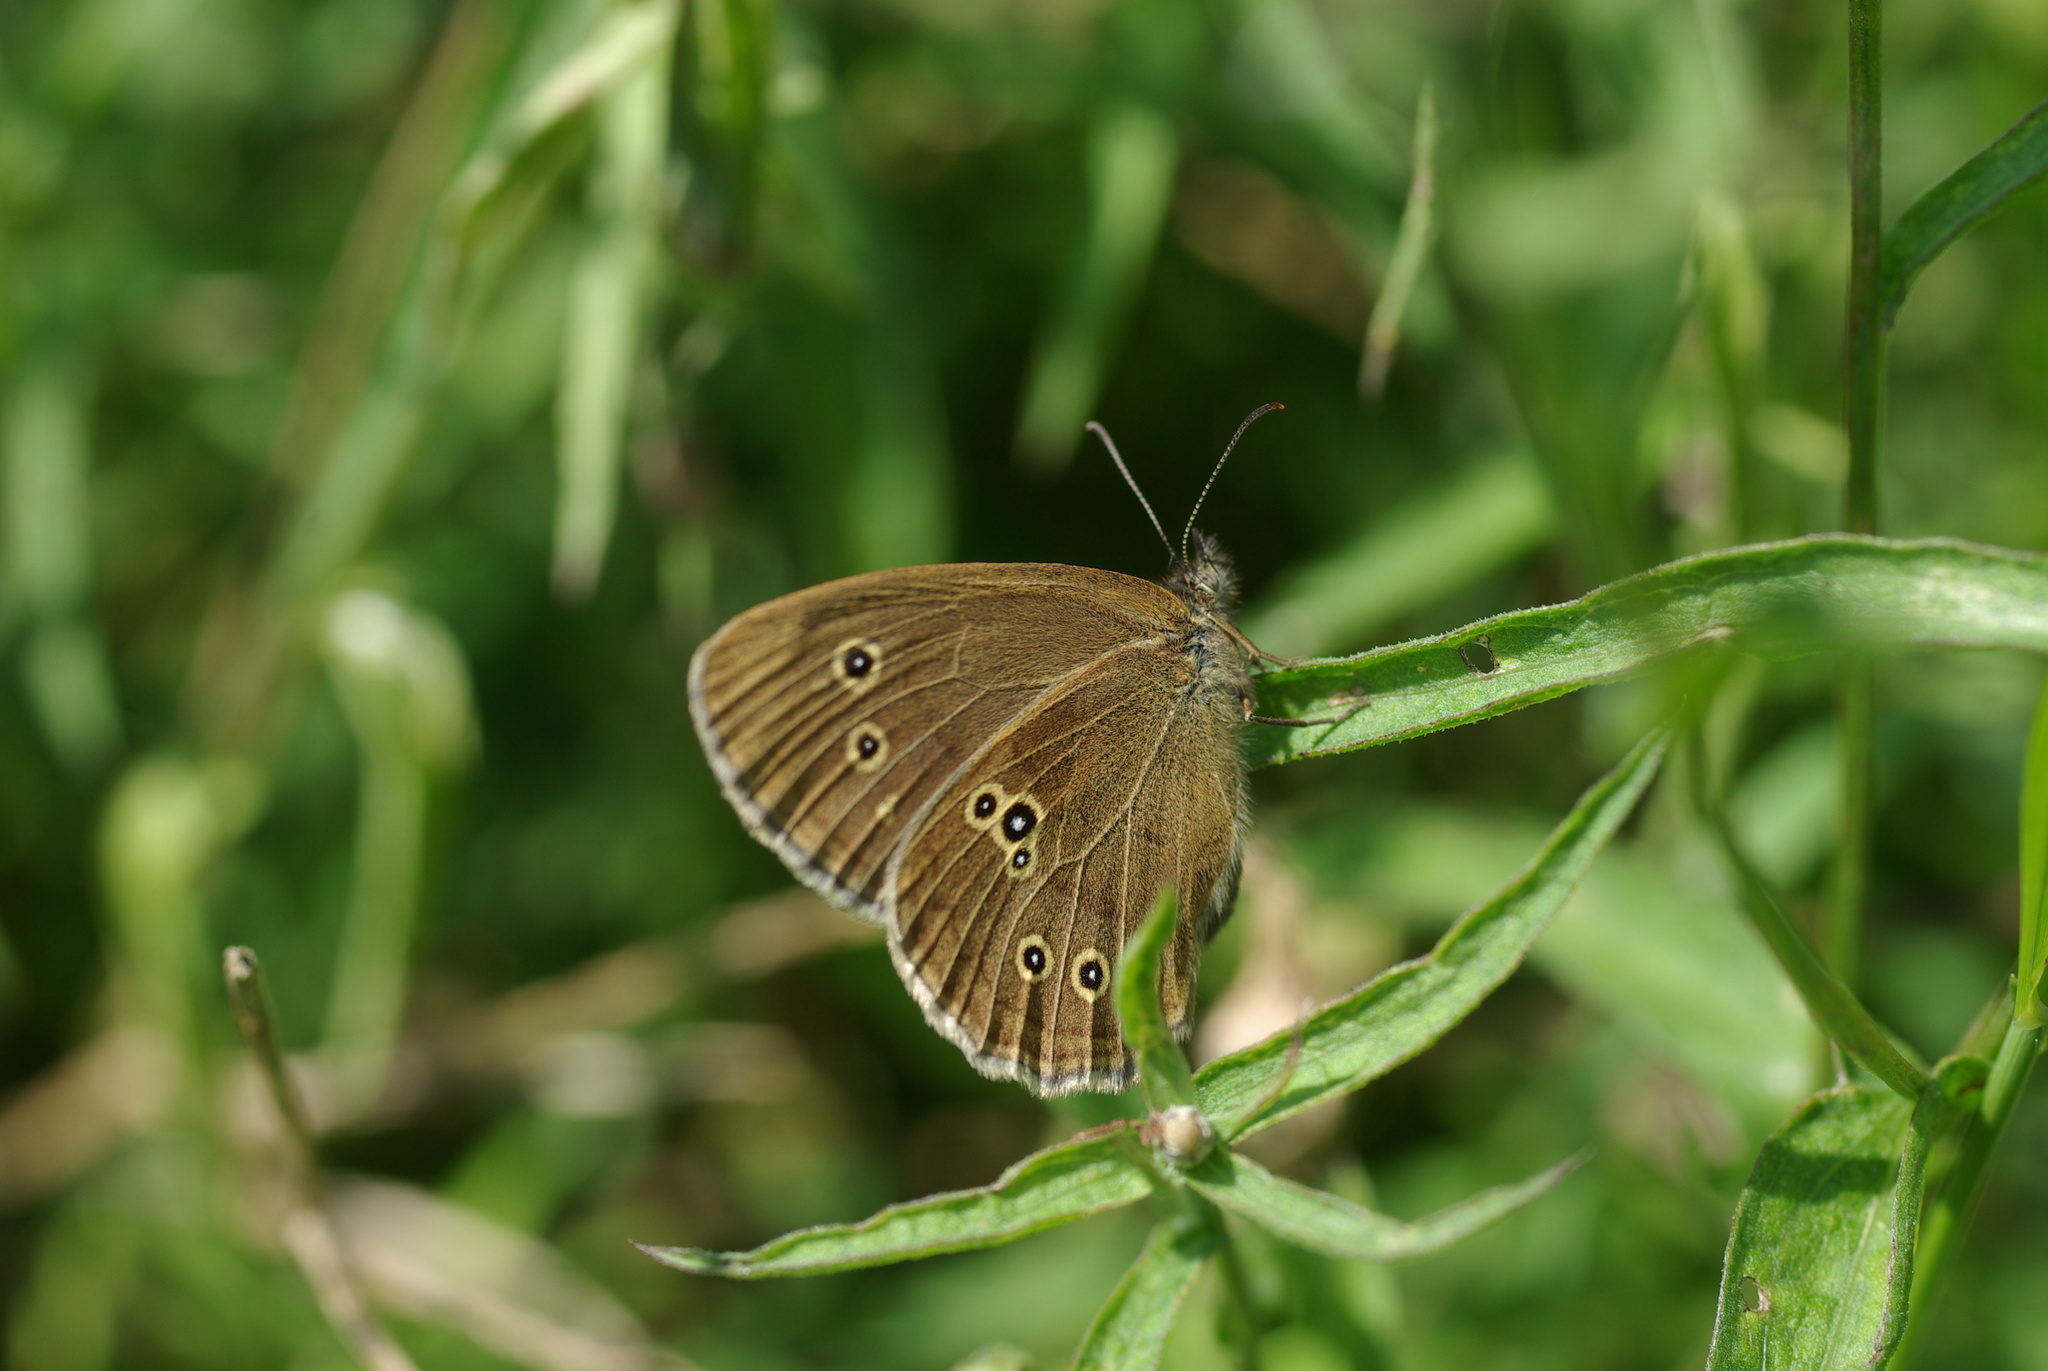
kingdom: Animalia
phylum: Arthropoda
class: Insecta
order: Lepidoptera
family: Nymphalidae
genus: Aphantopus
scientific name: Aphantopus hyperantus
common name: Ringlet
